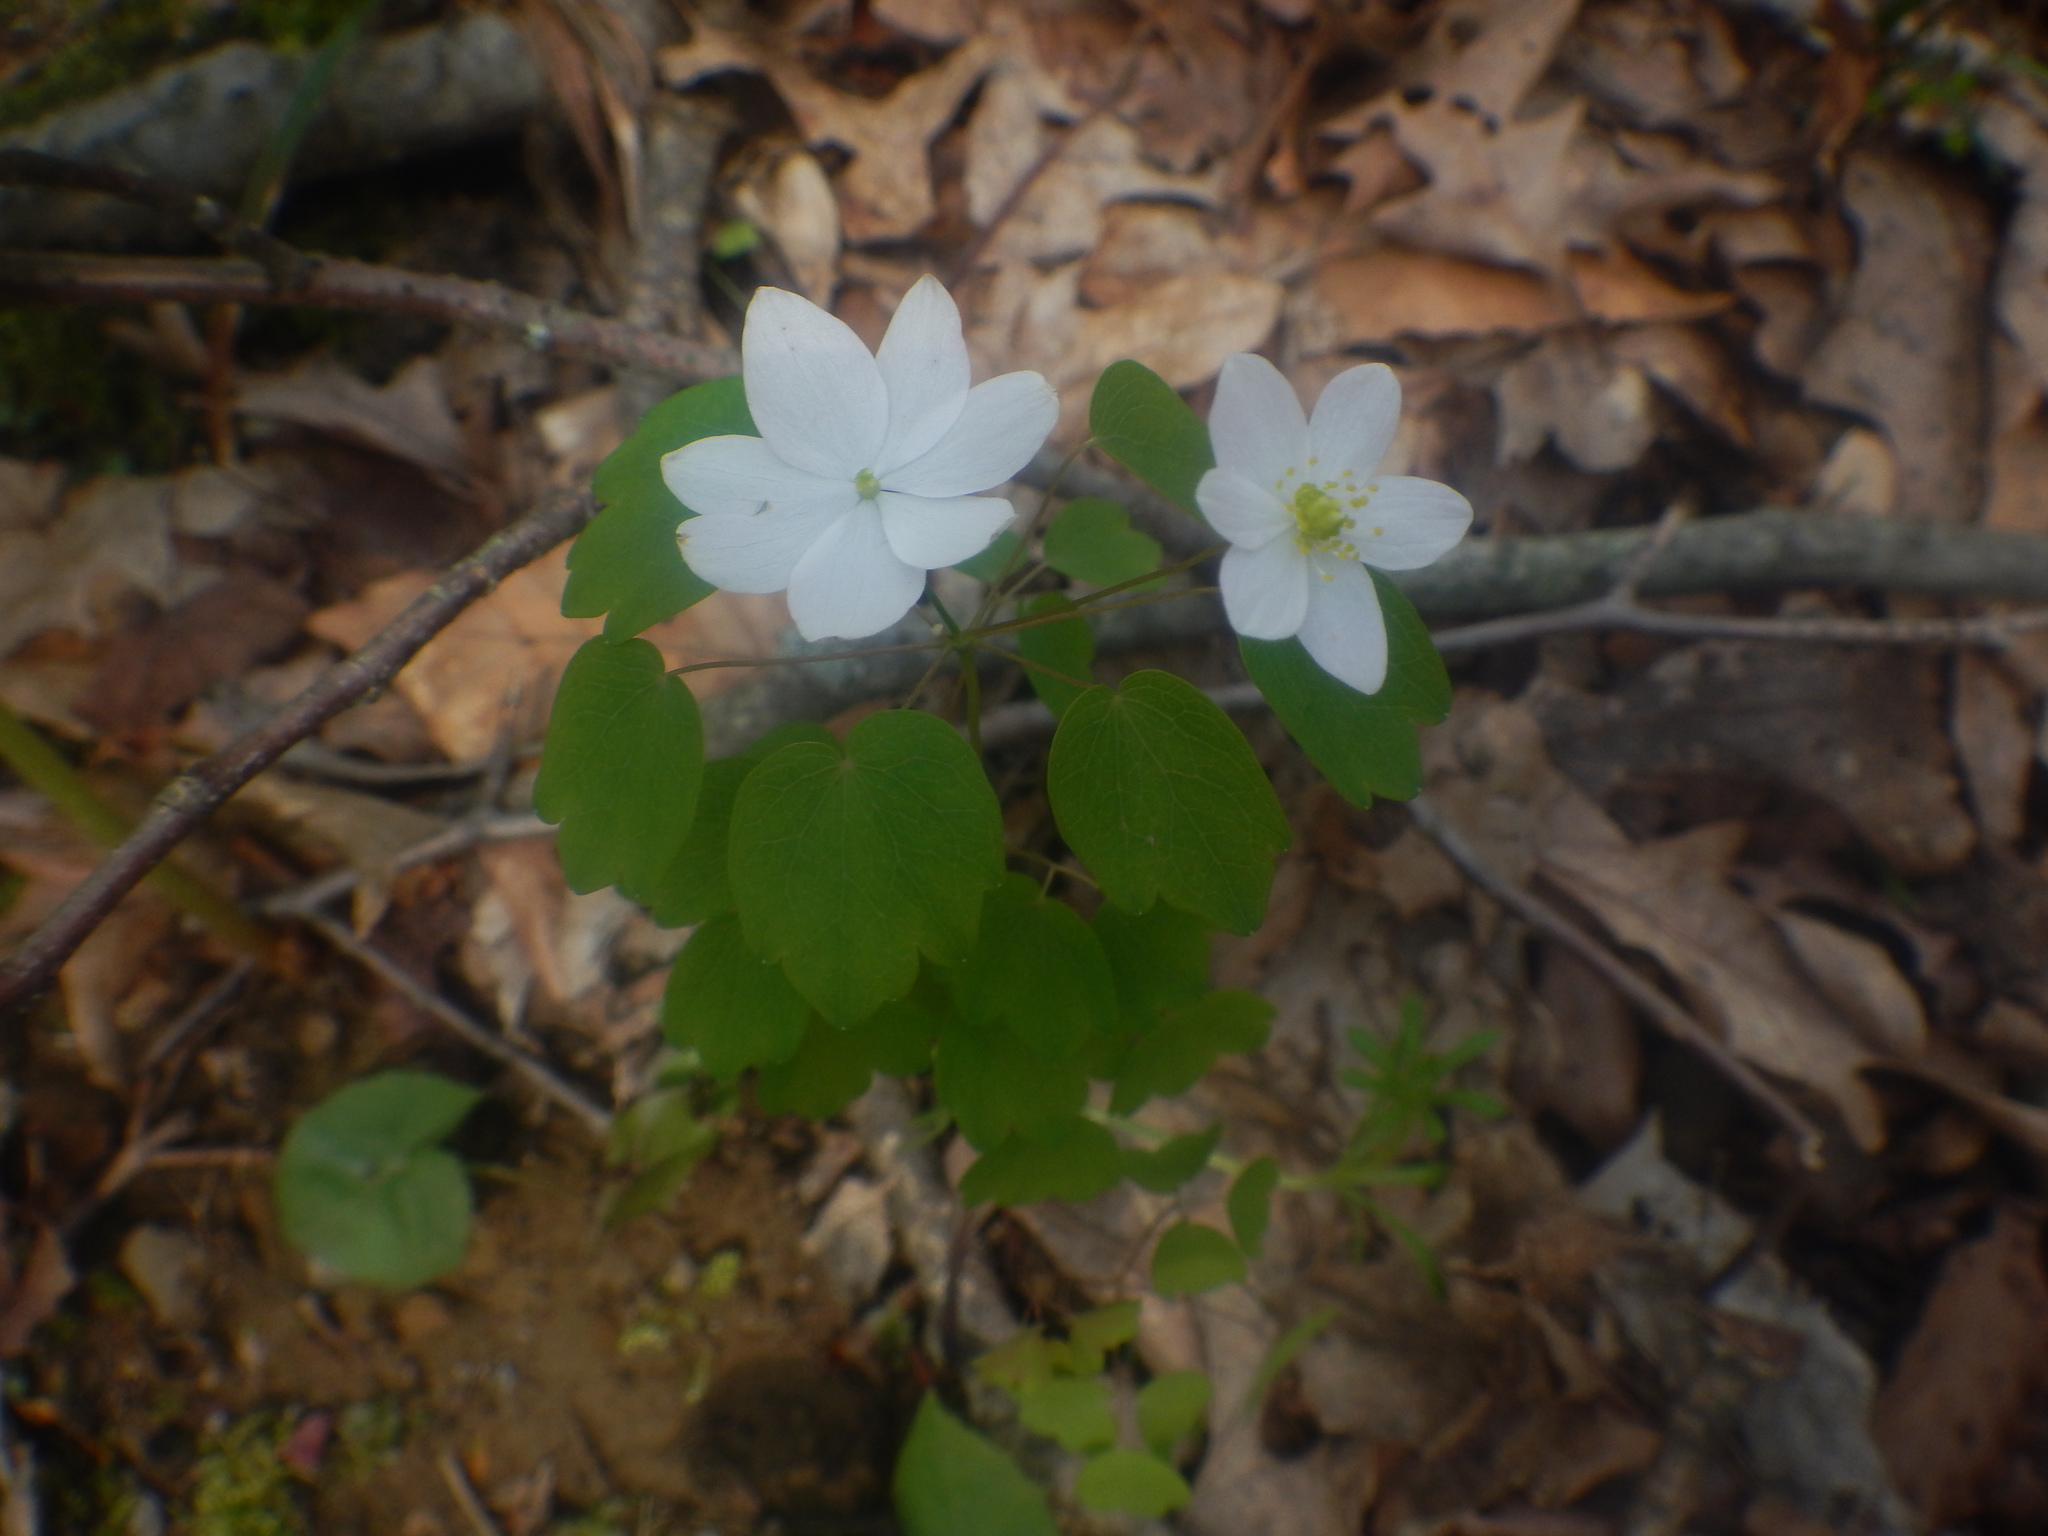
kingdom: Plantae
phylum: Tracheophyta
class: Magnoliopsida
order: Ranunculales
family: Ranunculaceae
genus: Thalictrum
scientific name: Thalictrum thalictroides
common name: Rue-anemone
